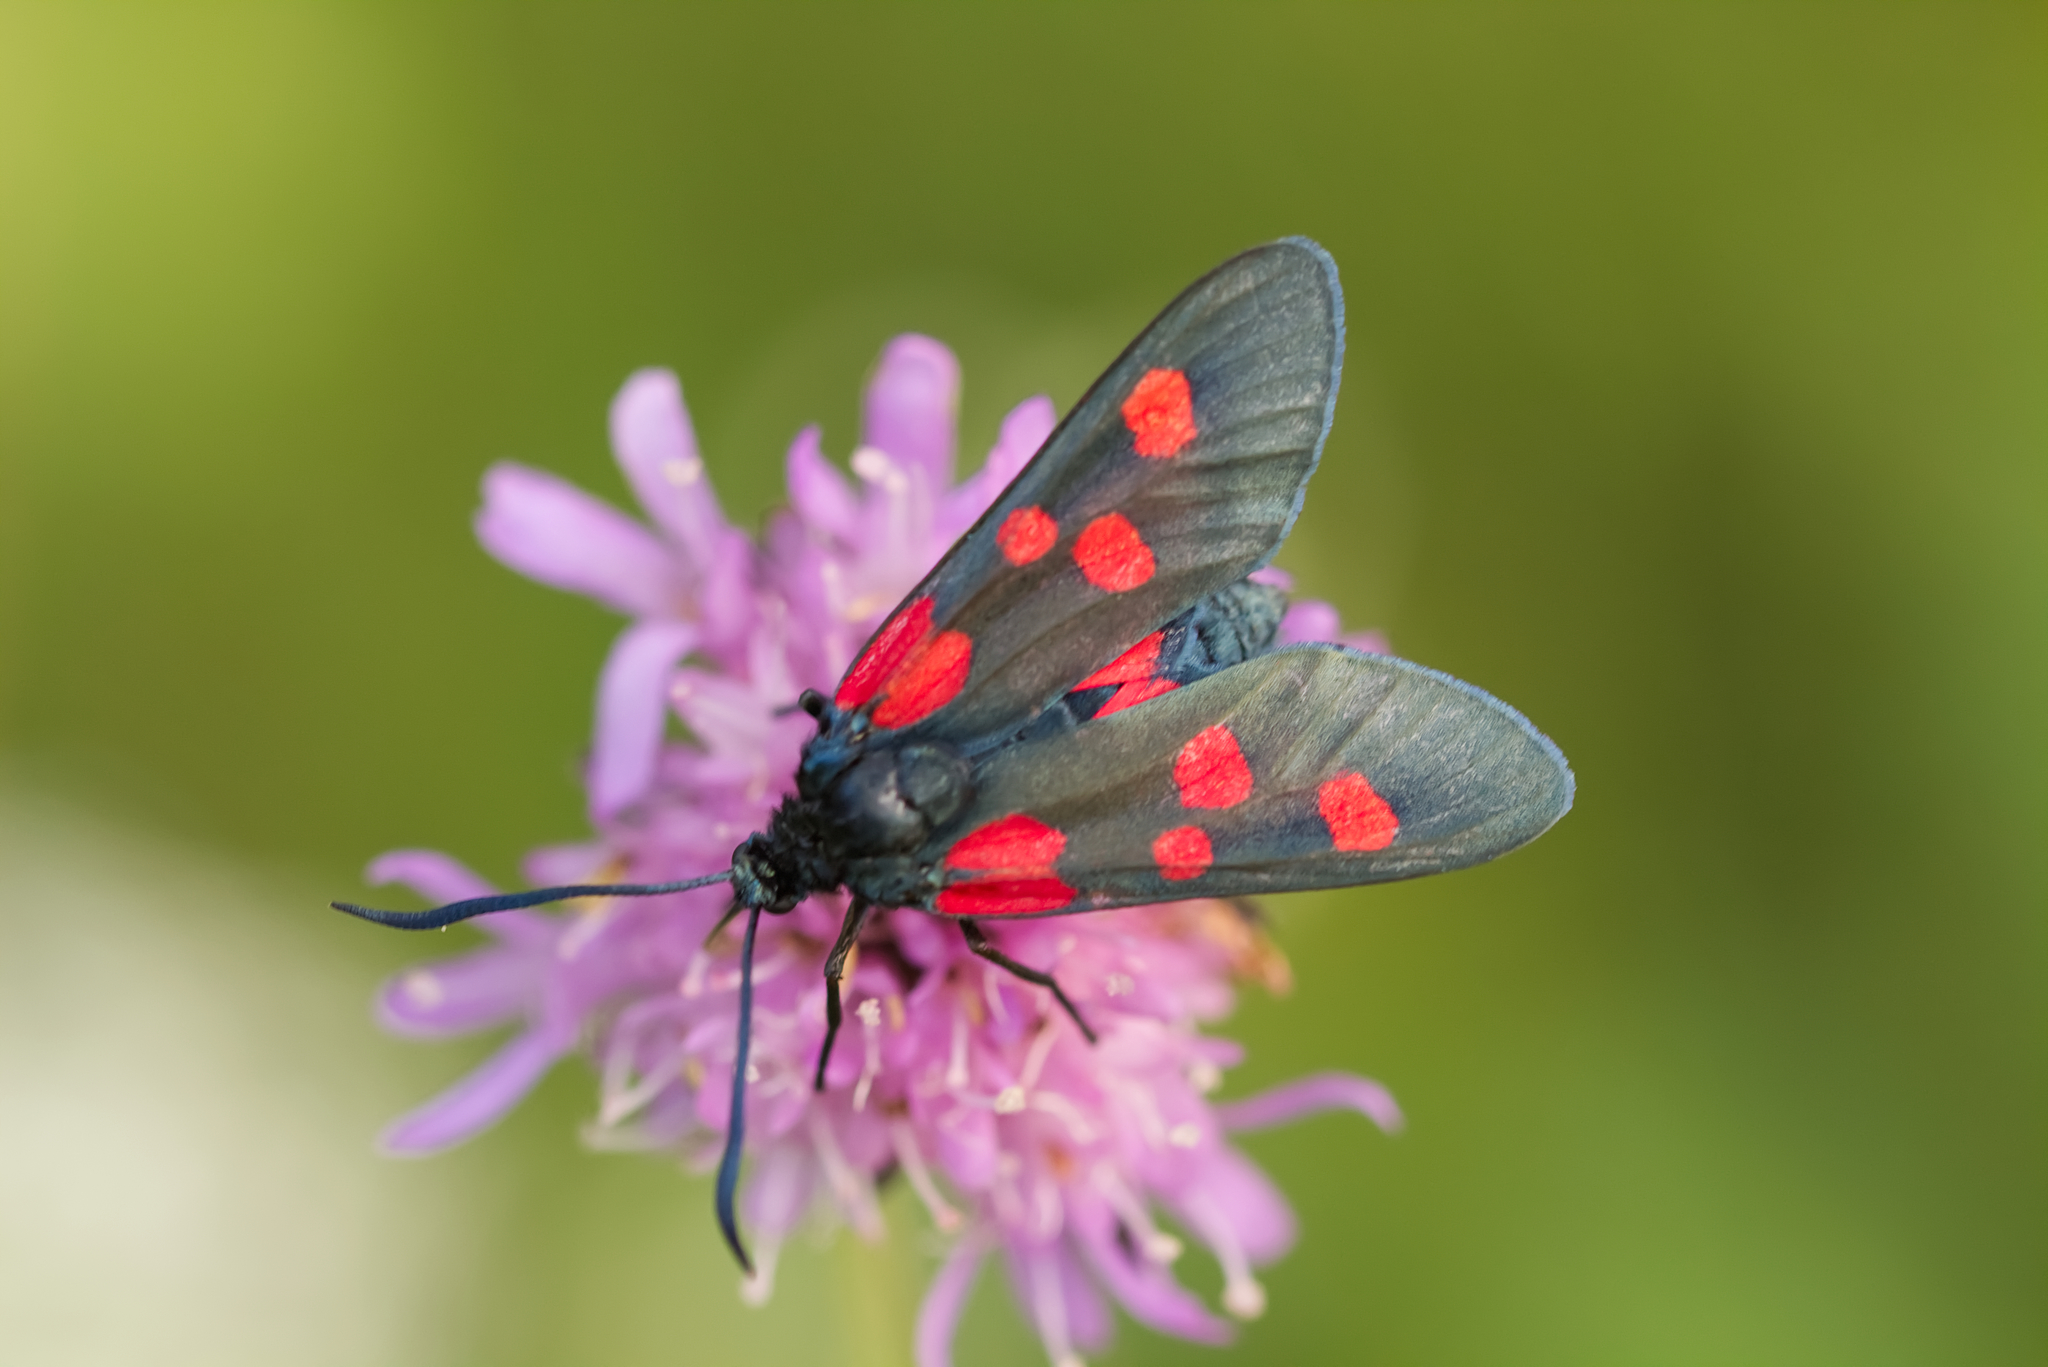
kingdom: Animalia
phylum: Arthropoda
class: Insecta
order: Lepidoptera
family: Zygaenidae
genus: Zygaena
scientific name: Zygaena lonicerae
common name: Narrow-bordered five-spot burnet
